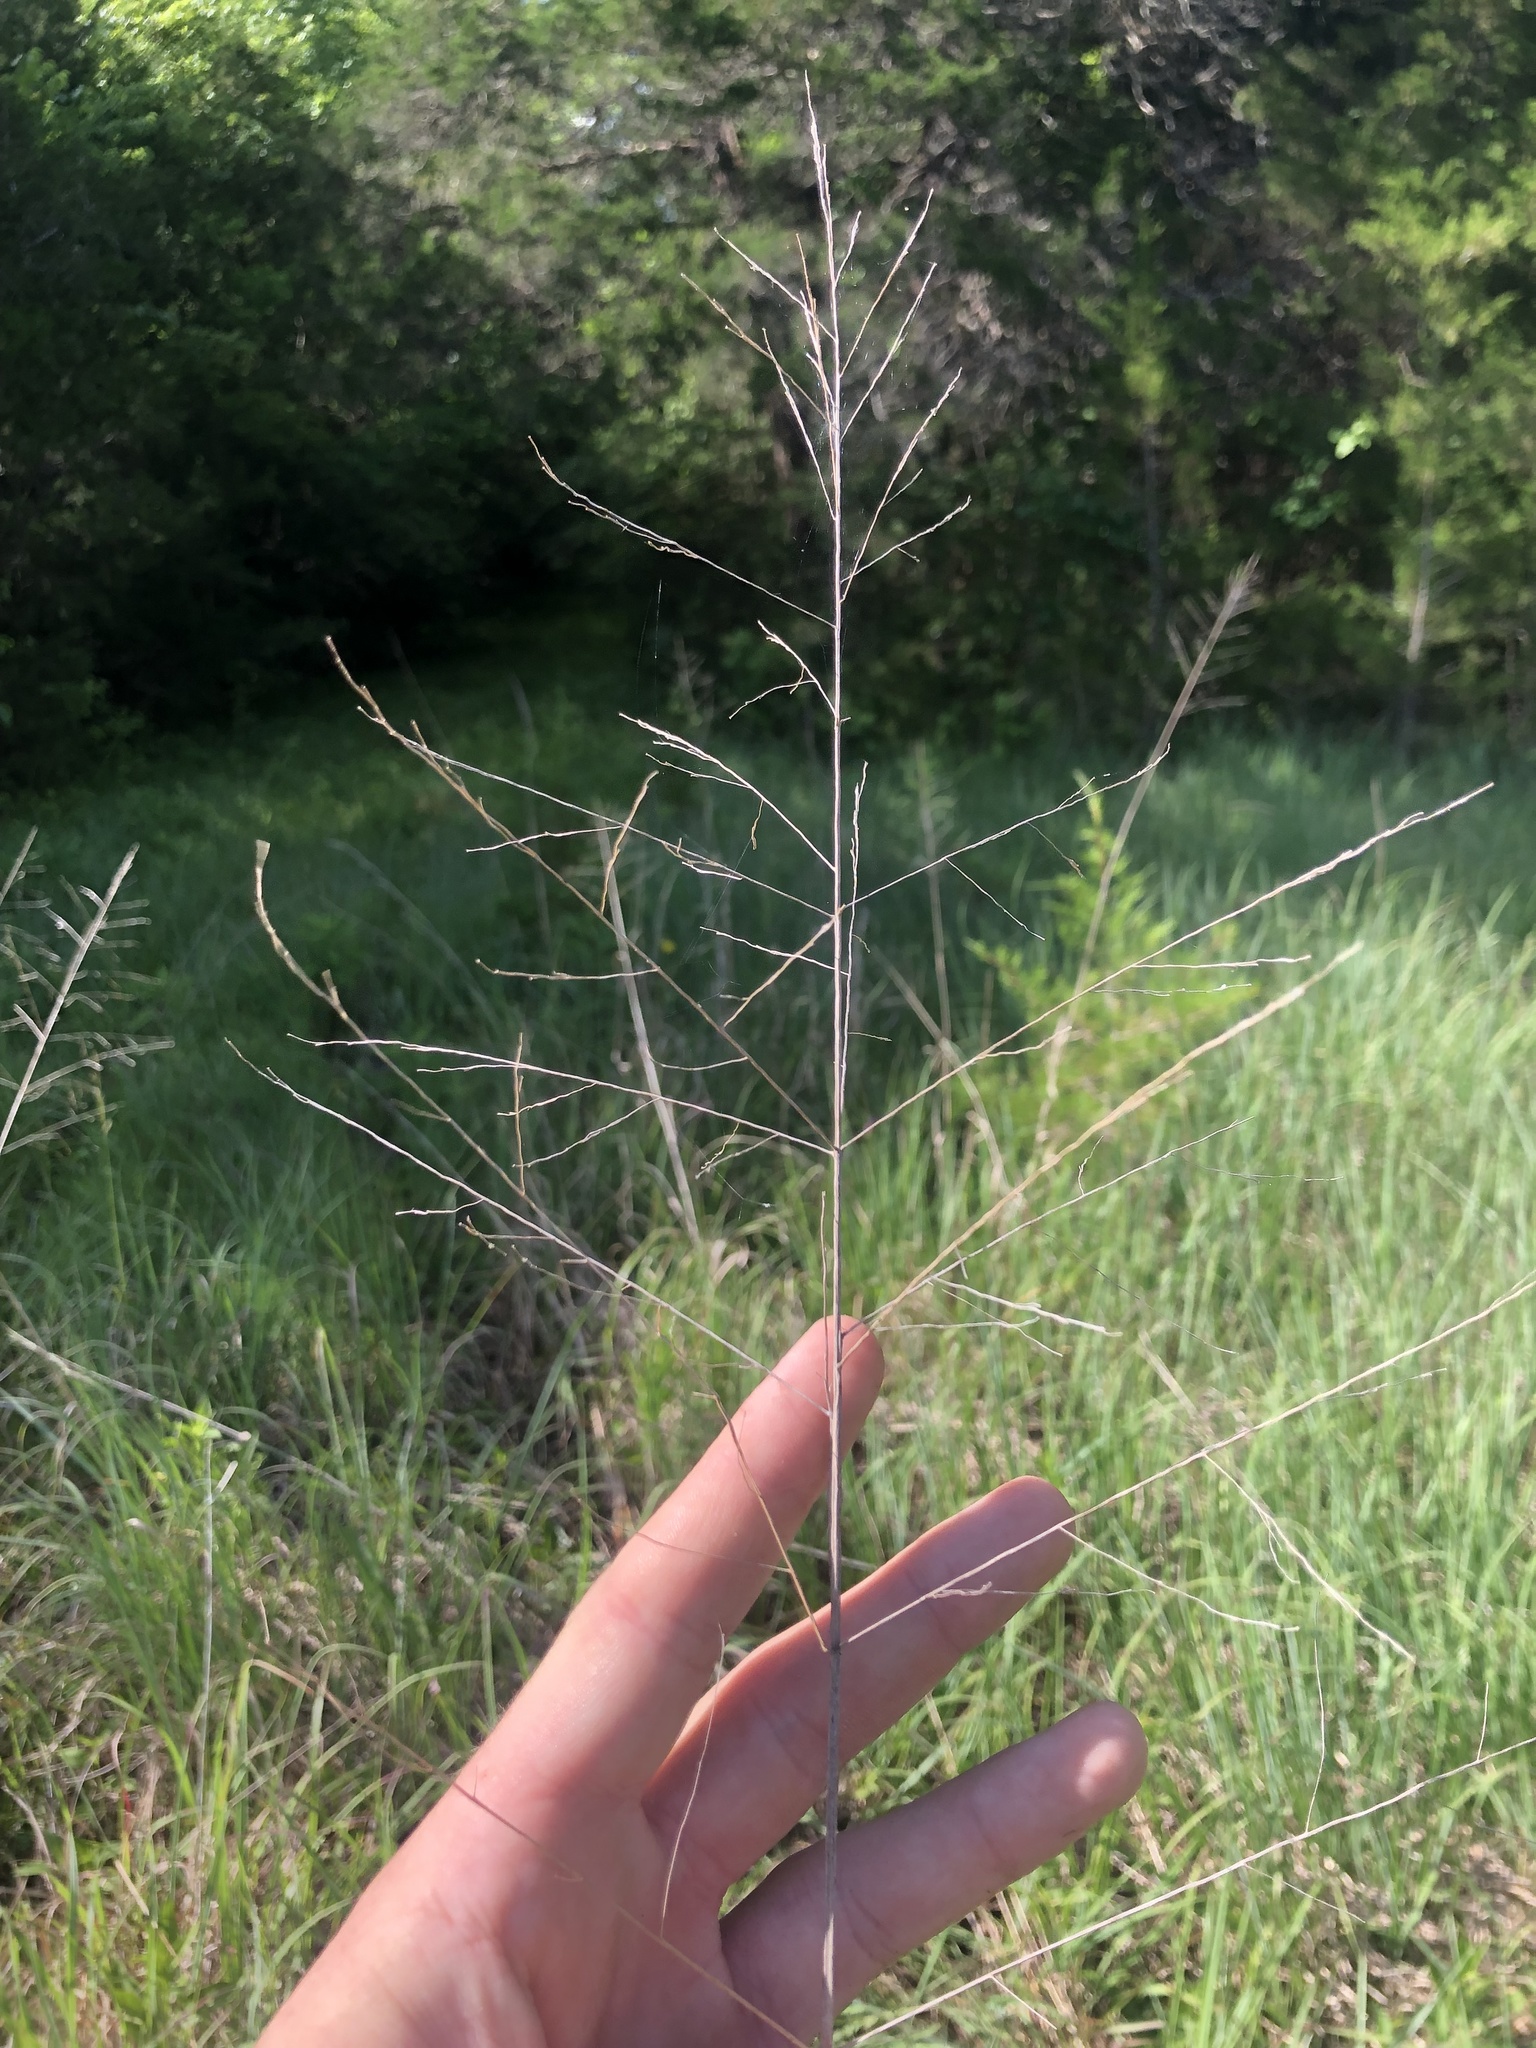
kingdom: Plantae
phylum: Tracheophyta
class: Liliopsida
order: Poales
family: Poaceae
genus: Panicum
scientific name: Panicum virgatum
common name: Switchgrass
